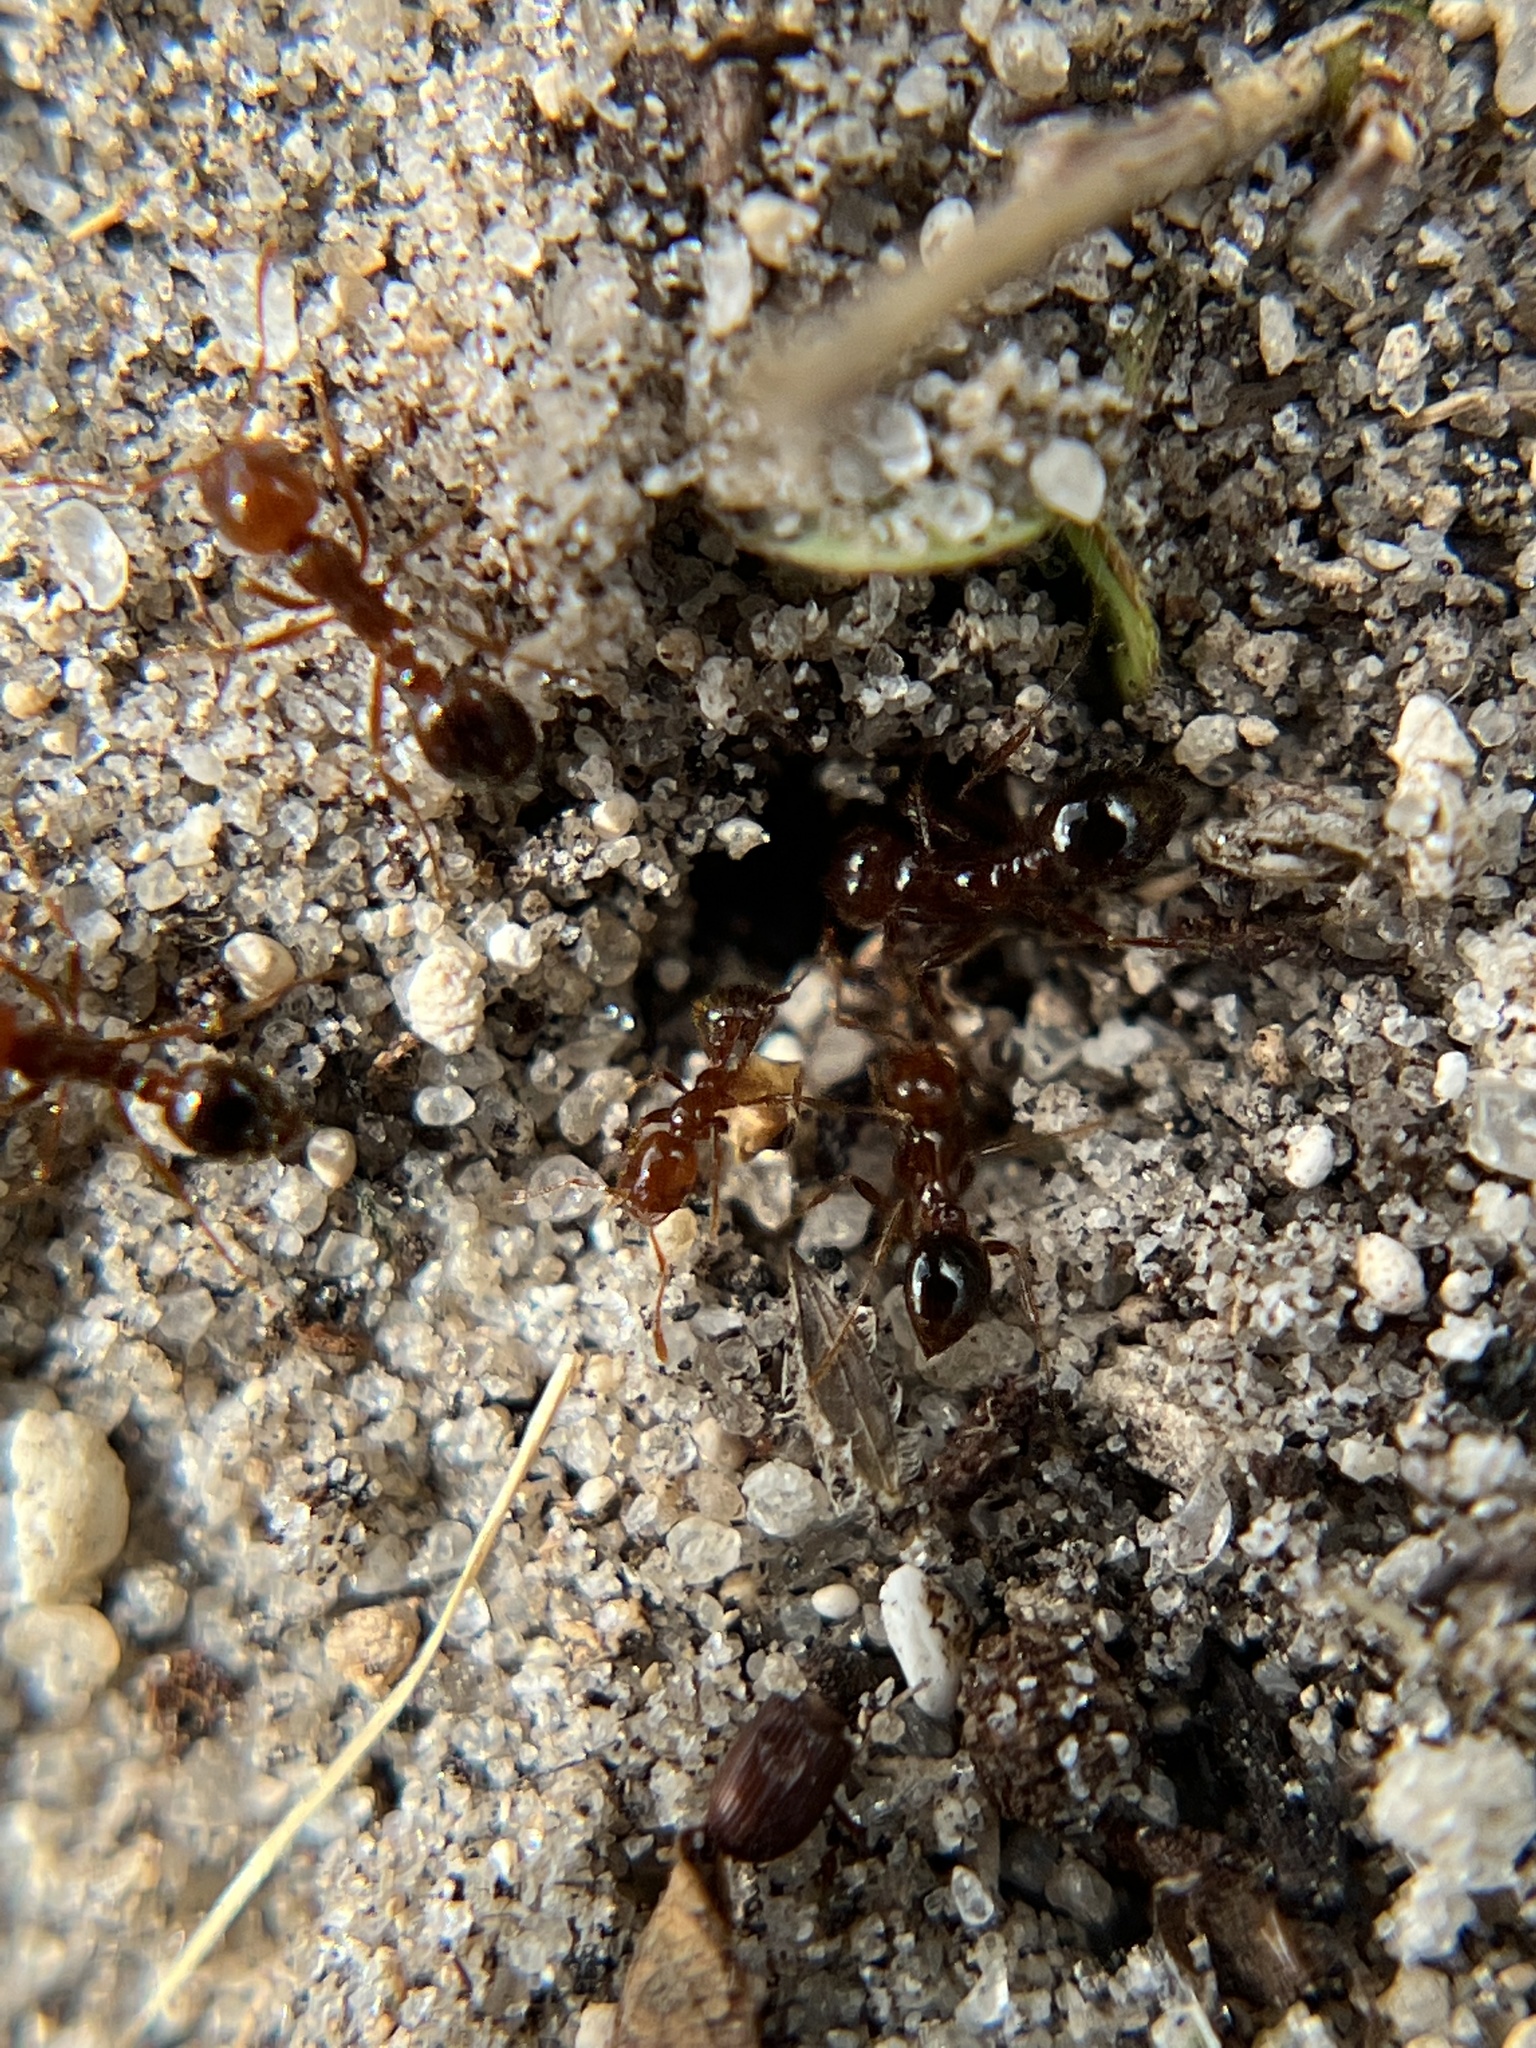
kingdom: Animalia
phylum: Arthropoda
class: Insecta
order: Hymenoptera
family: Formicidae
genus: Solenopsis
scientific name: Solenopsis invicta
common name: Red imported fire ant
